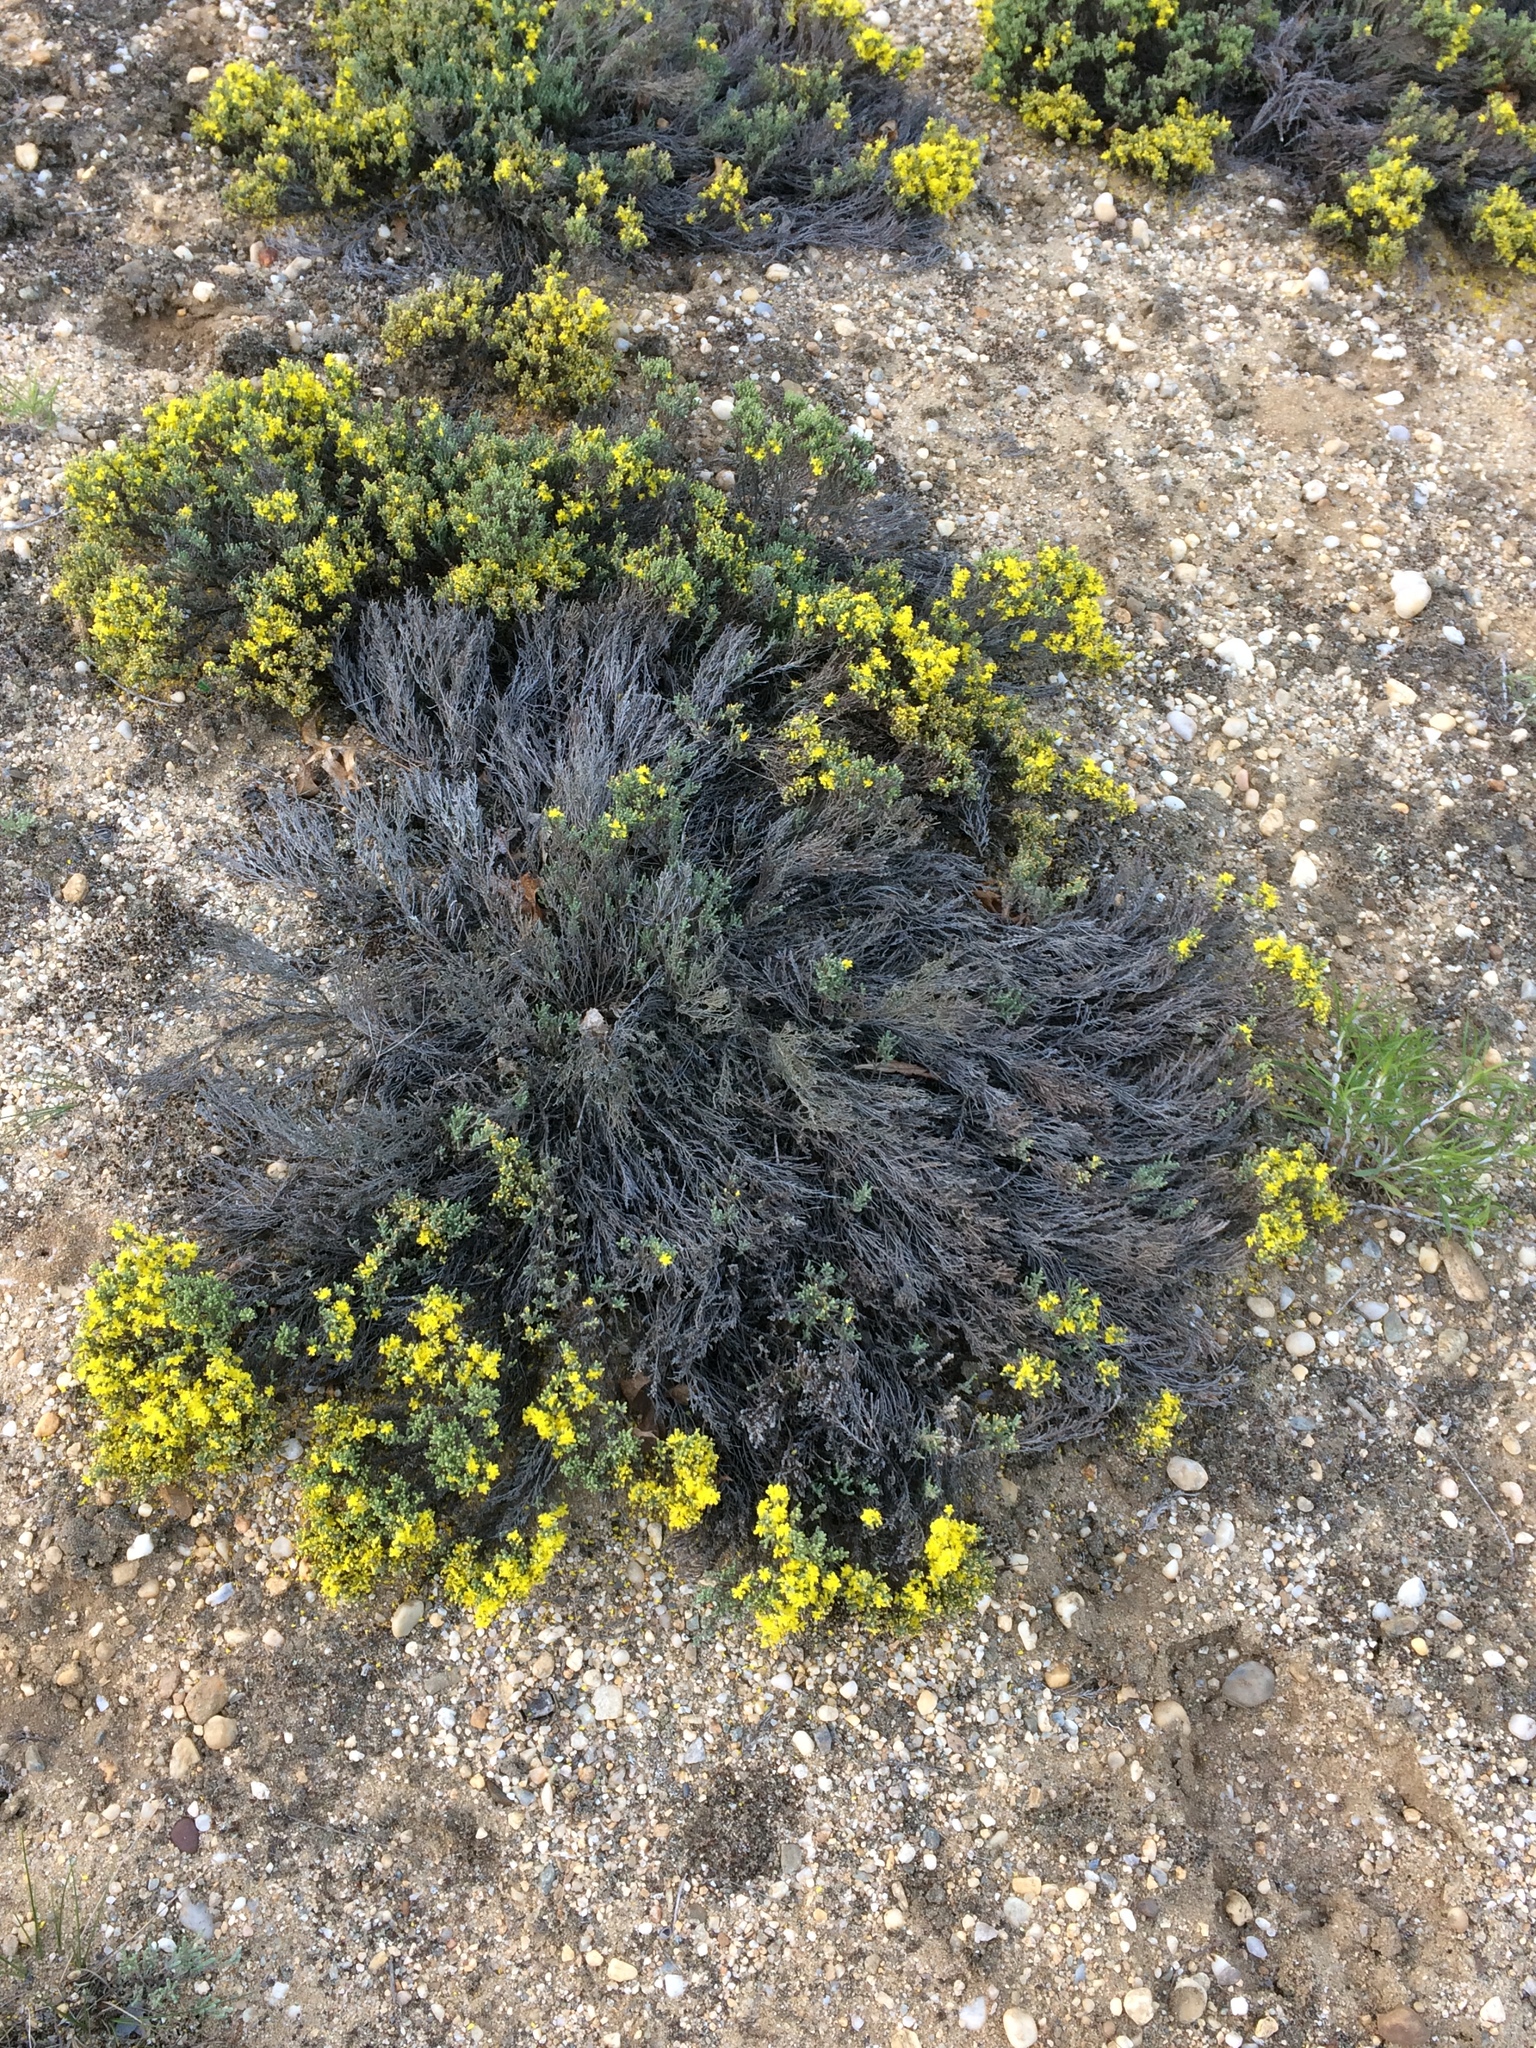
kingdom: Plantae
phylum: Tracheophyta
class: Magnoliopsida
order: Malvales
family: Cistaceae
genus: Hudsonia
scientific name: Hudsonia tomentosa
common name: Beach-heath
